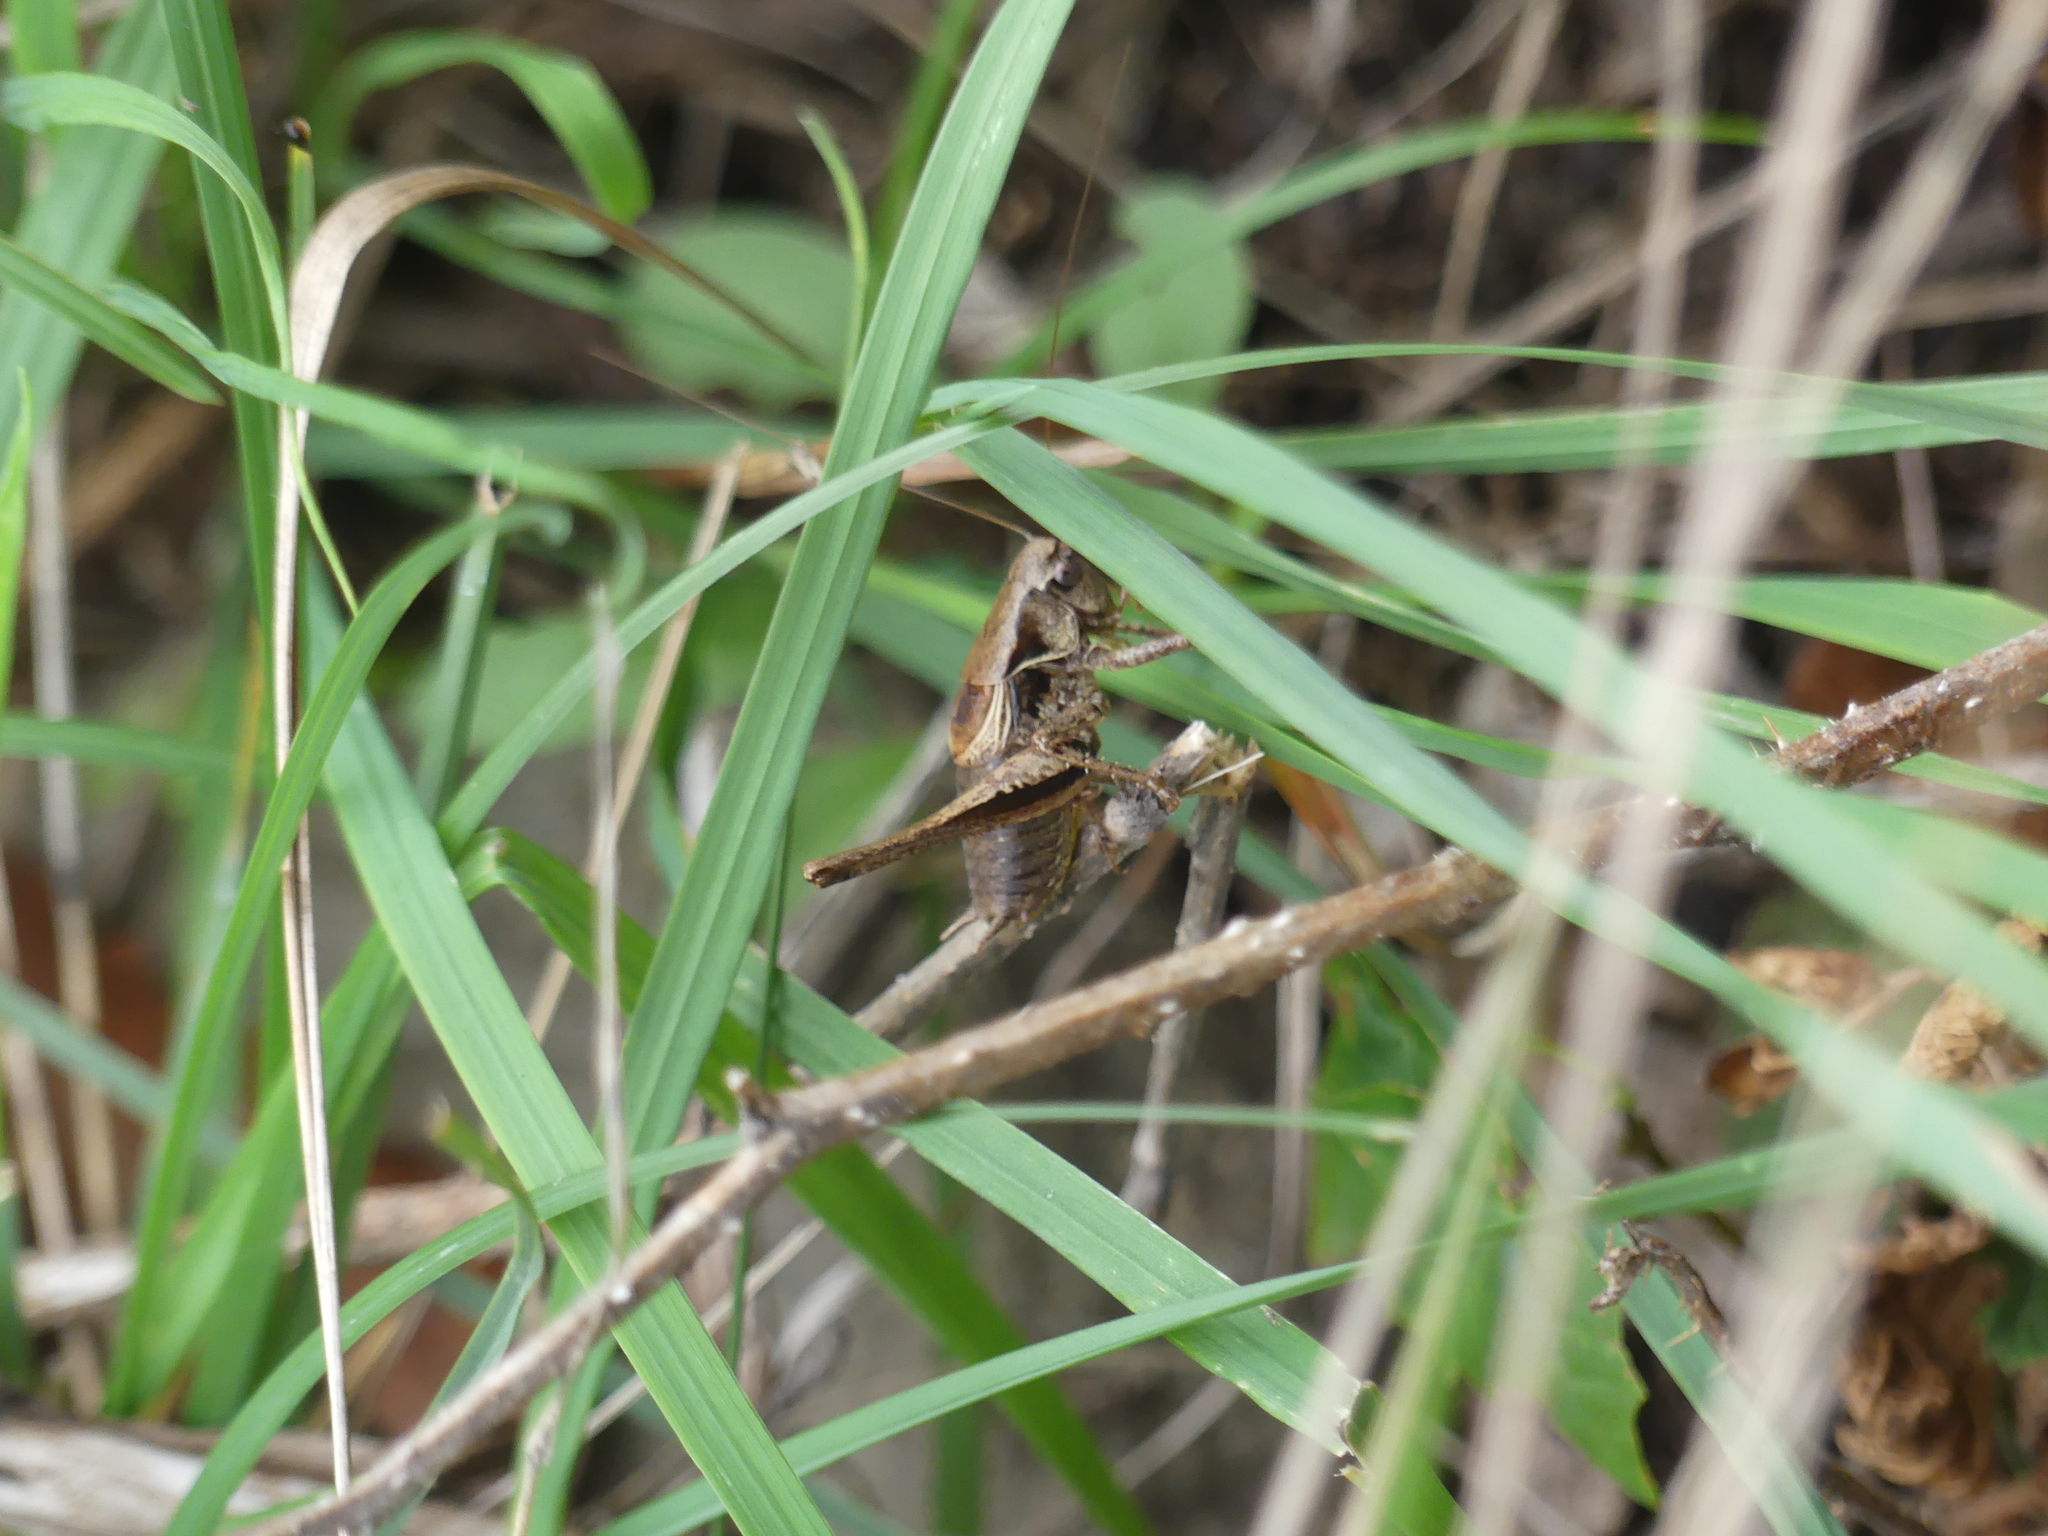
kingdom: Animalia
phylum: Arthropoda
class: Insecta
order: Orthoptera
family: Tettigoniidae
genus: Pholidoptera
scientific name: Pholidoptera griseoaptera
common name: Dark bush-cricket
